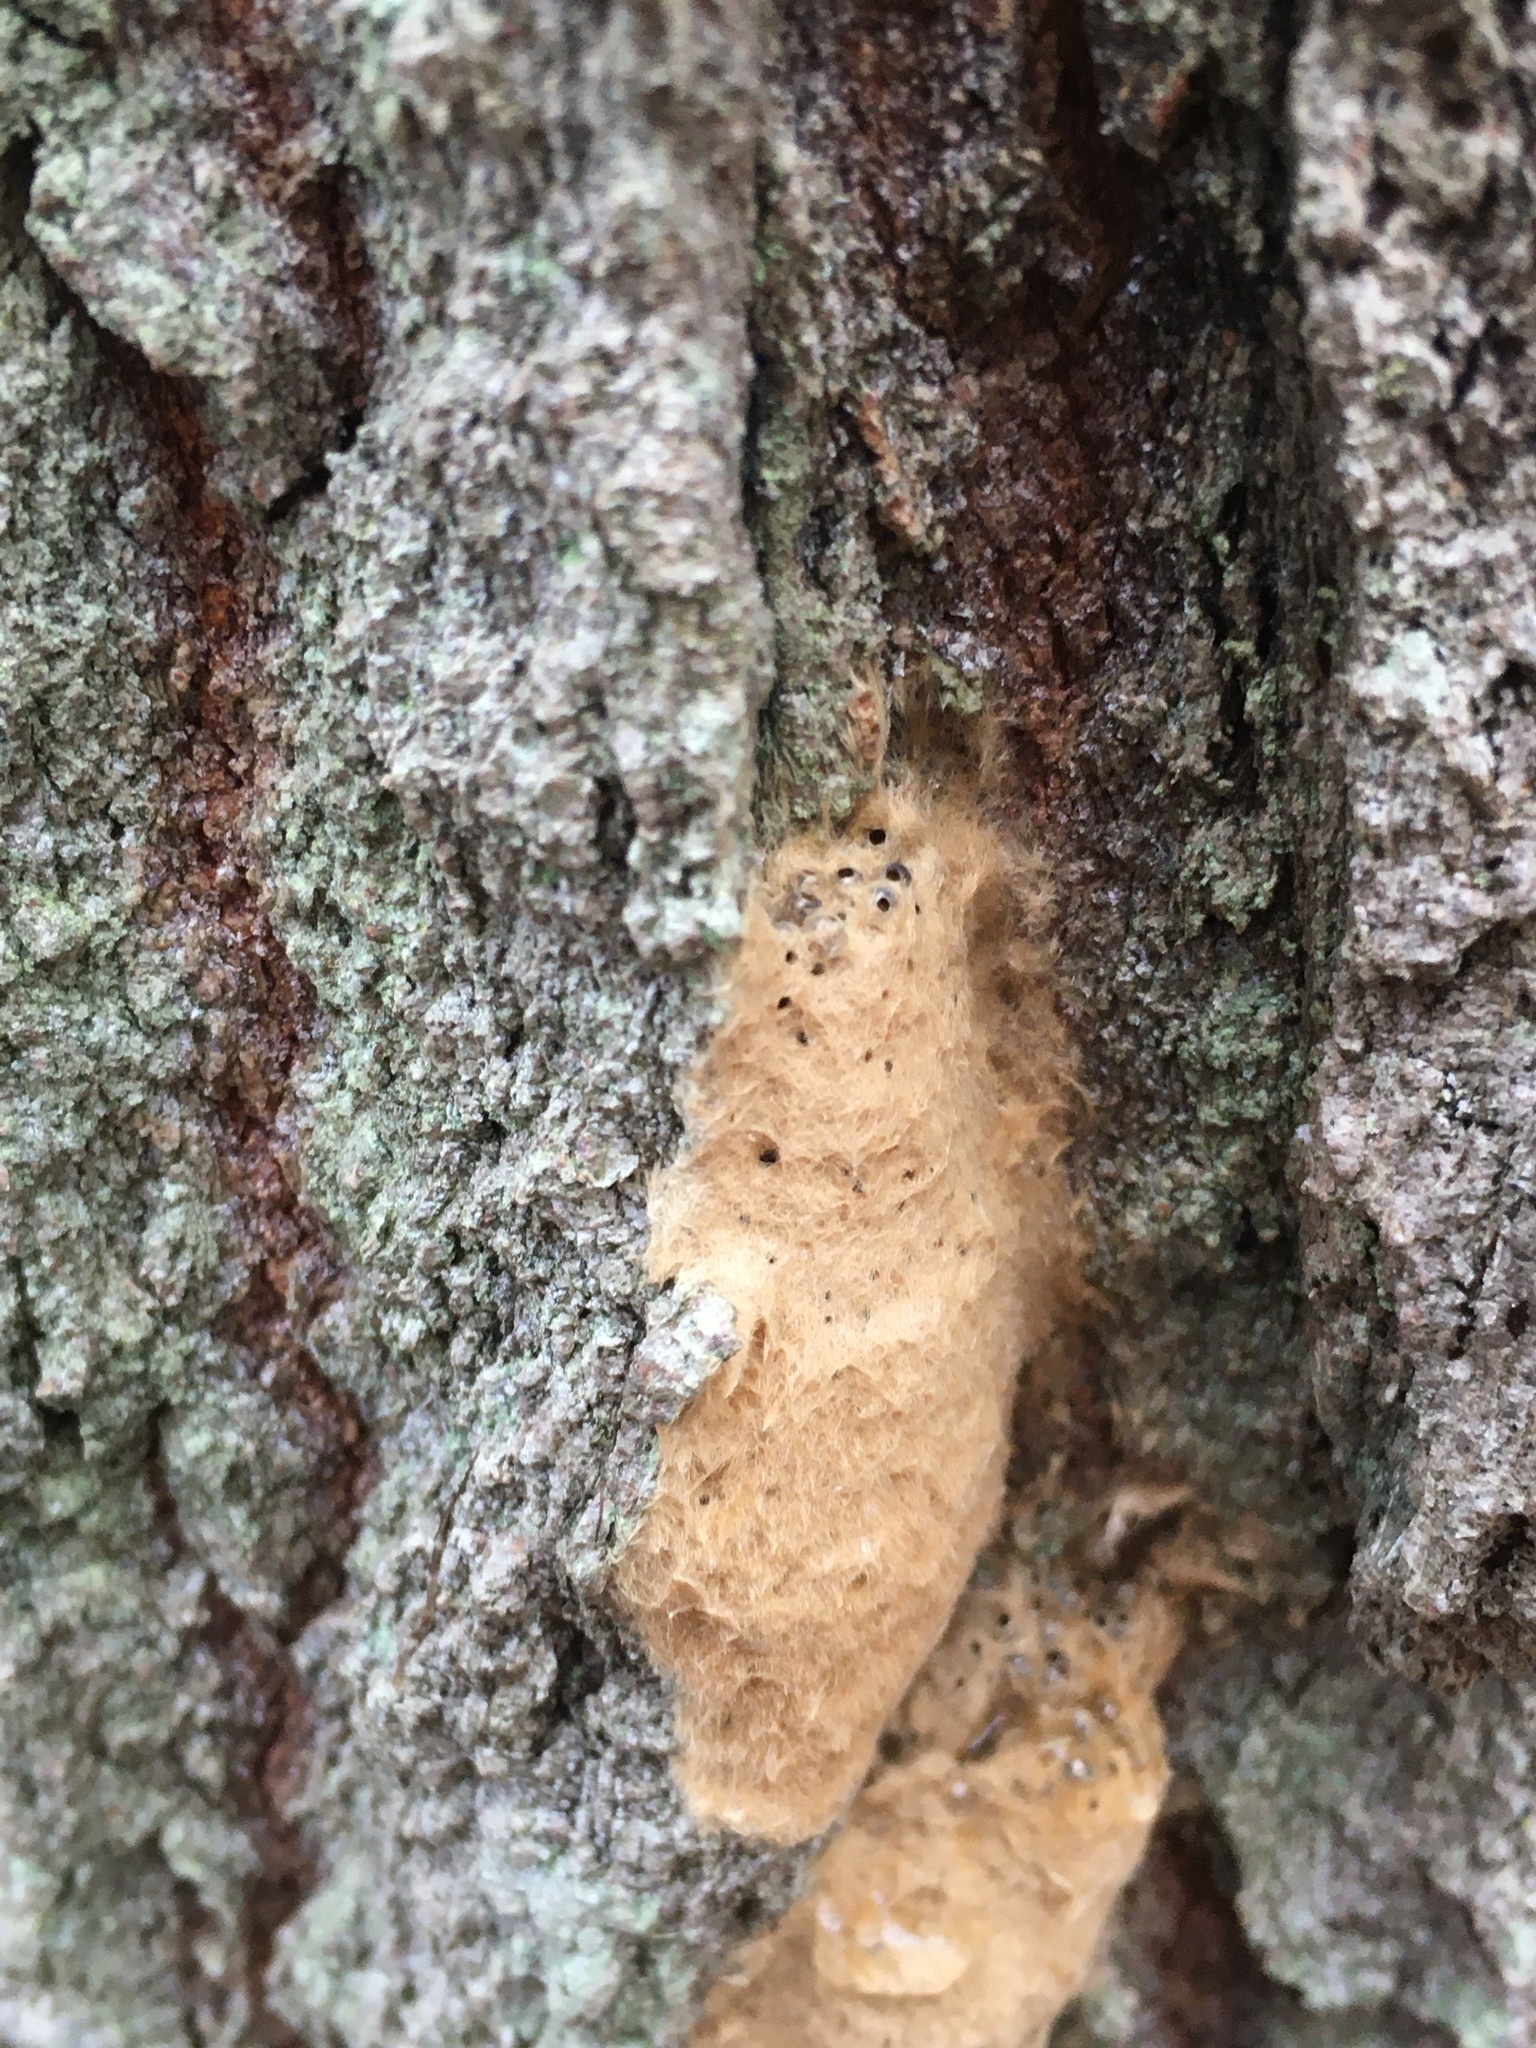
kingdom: Animalia
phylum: Arthropoda
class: Insecta
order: Lepidoptera
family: Erebidae
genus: Lymantria
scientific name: Lymantria dispar
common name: Gypsy moth
